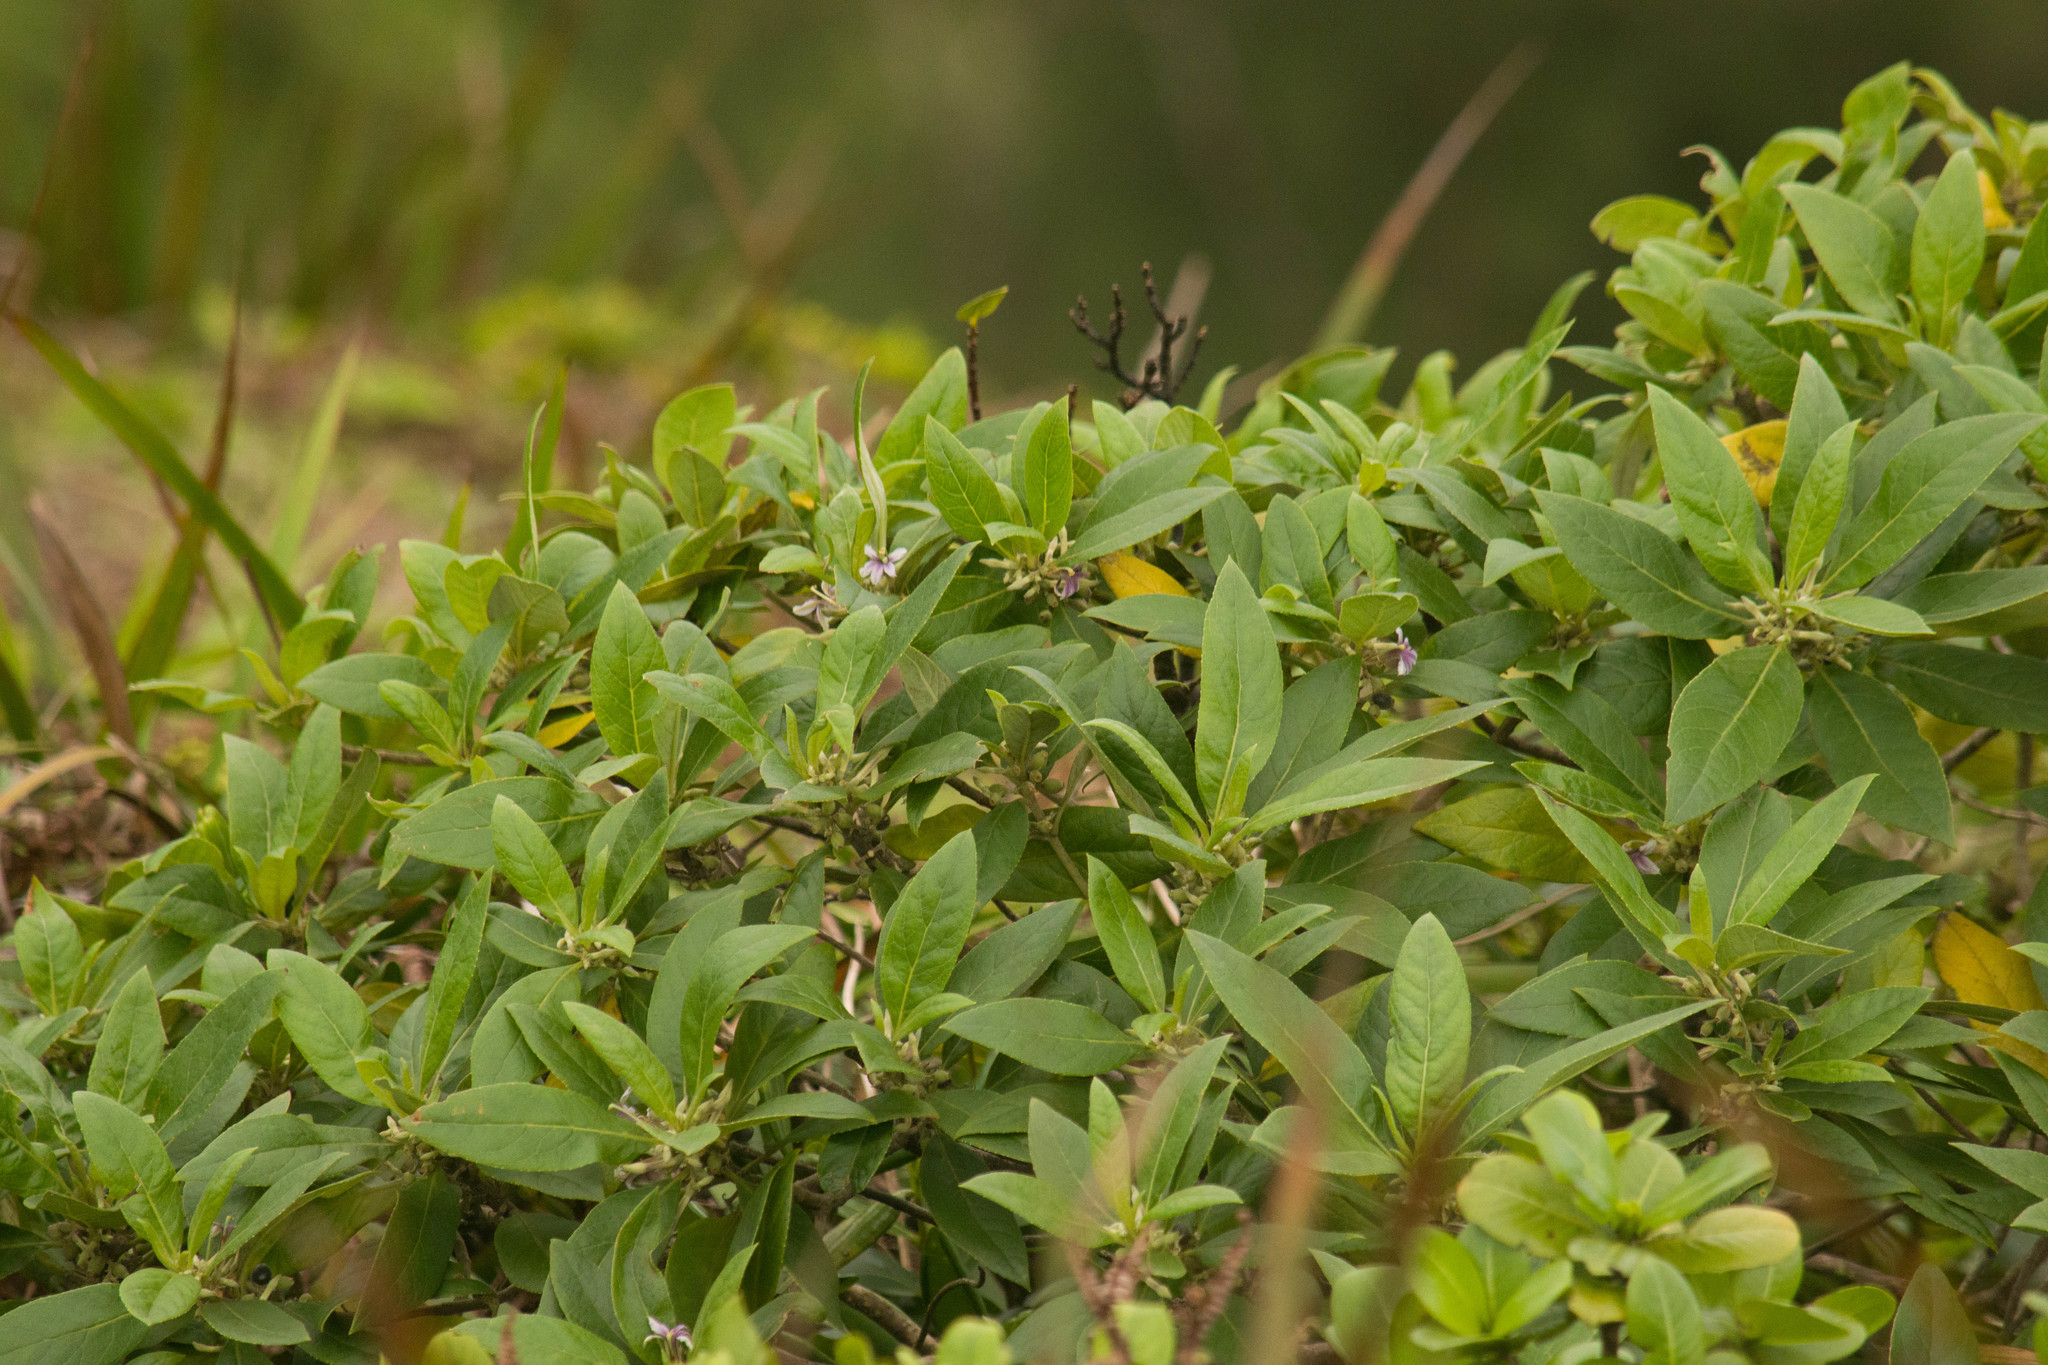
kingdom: Plantae
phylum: Tracheophyta
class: Magnoliopsida
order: Asterales
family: Goodeniaceae
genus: Scaevola
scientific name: Scaevola mollis
